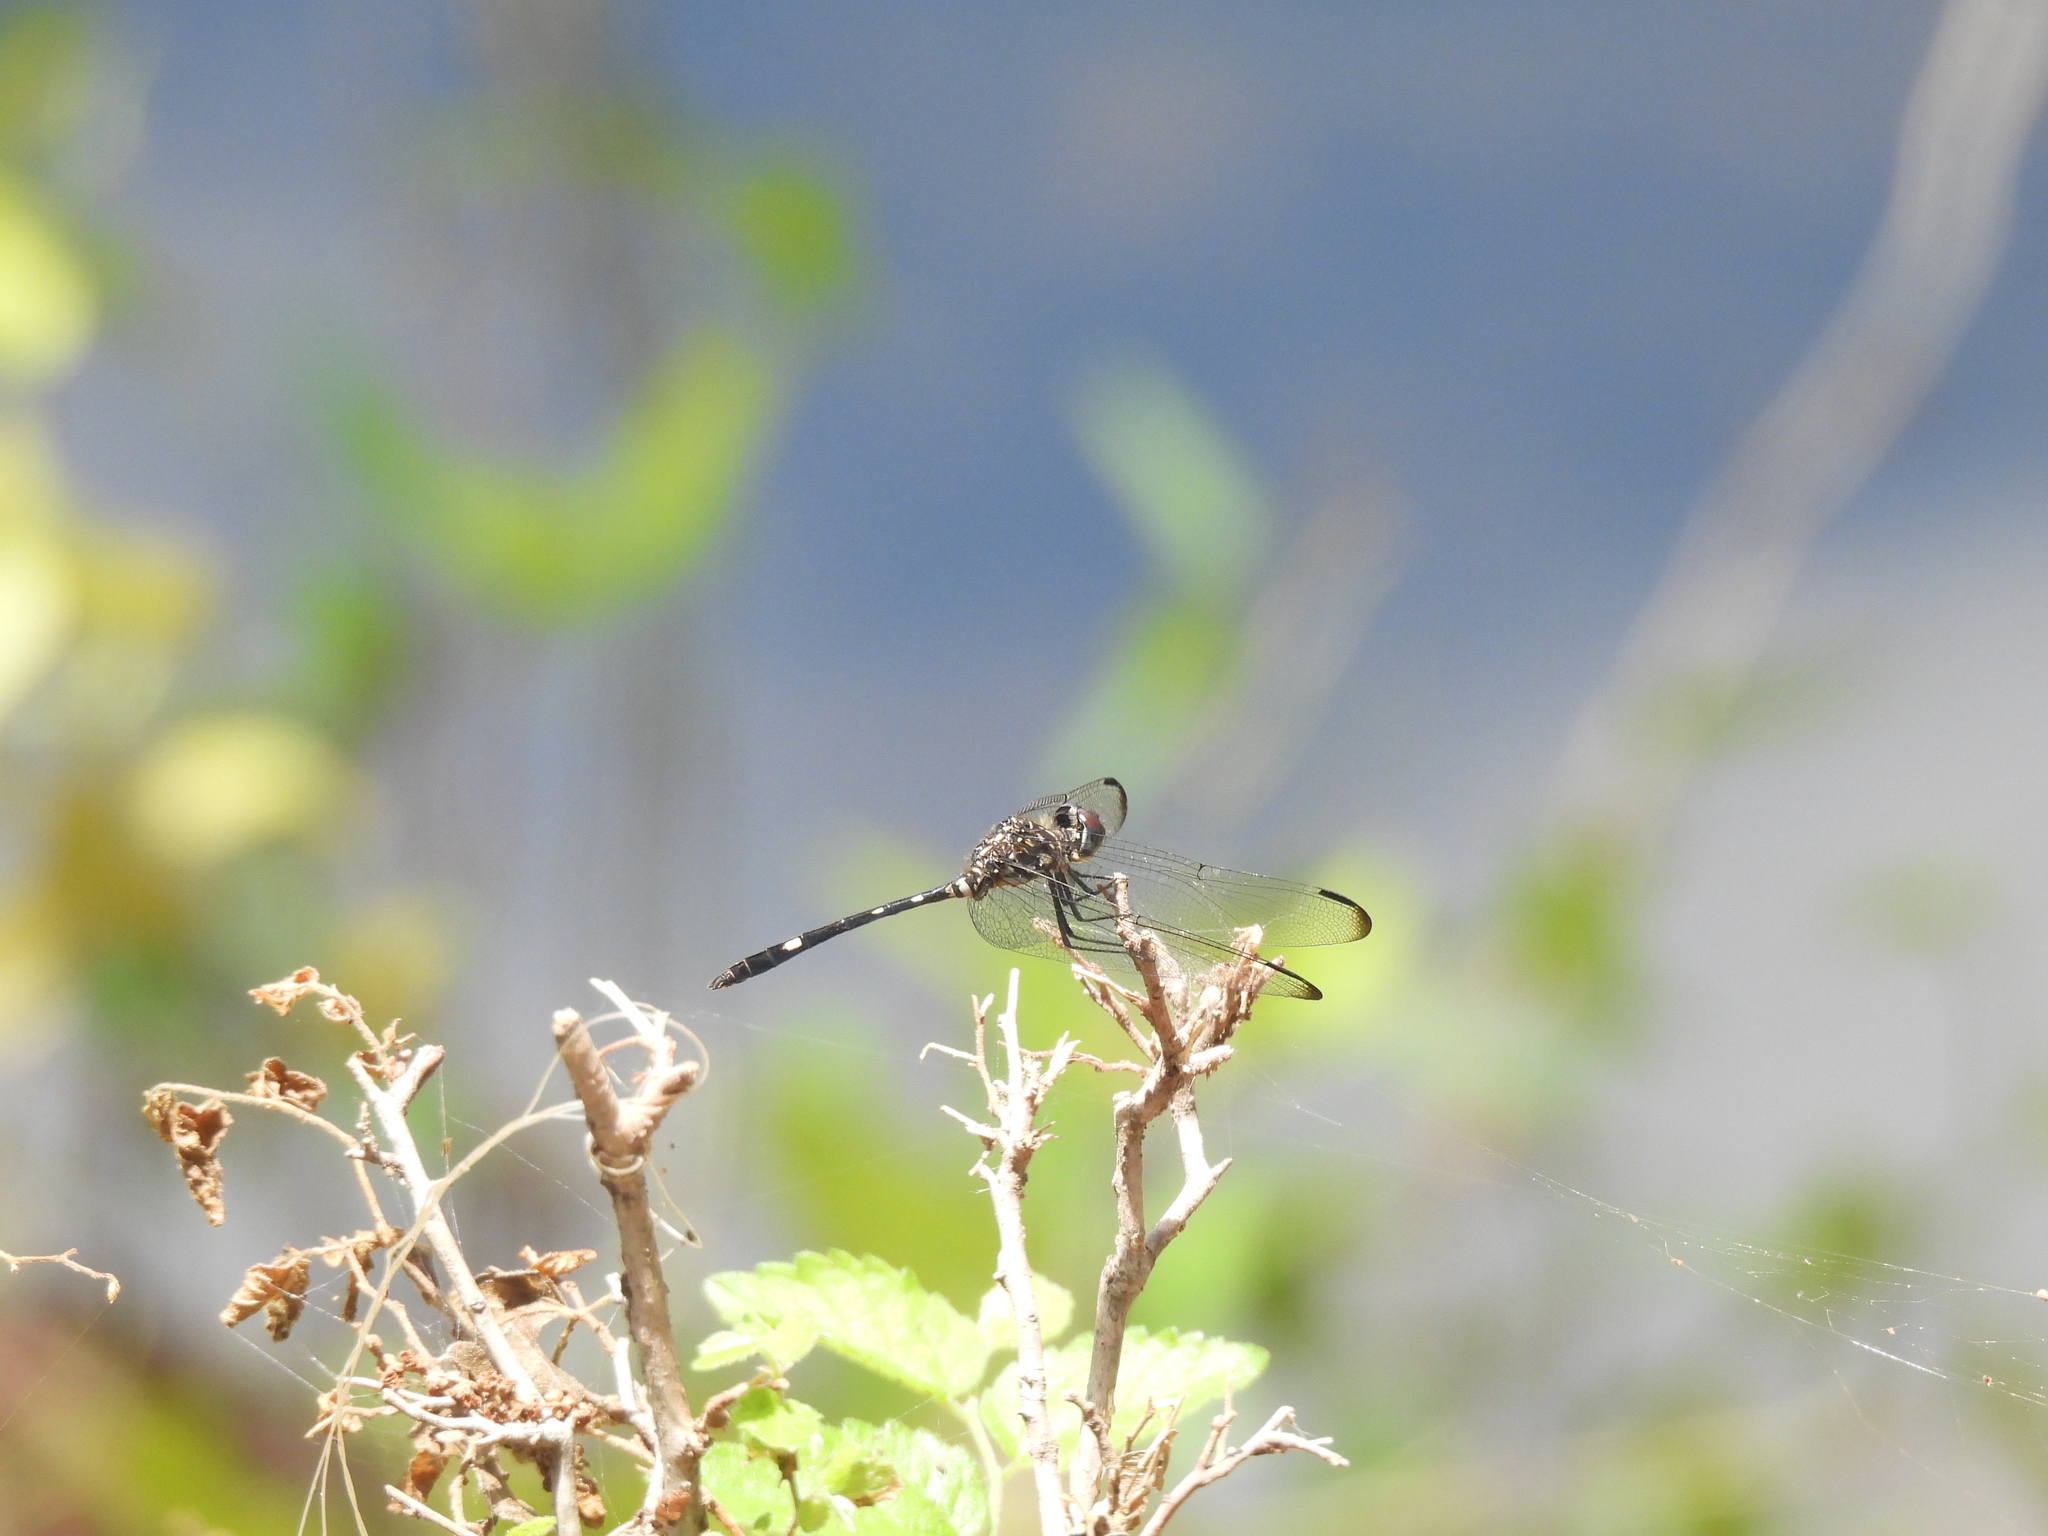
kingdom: Animalia
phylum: Arthropoda
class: Insecta
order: Odonata
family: Libellulidae
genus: Dythemis
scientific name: Dythemis velox
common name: Swift setwing
